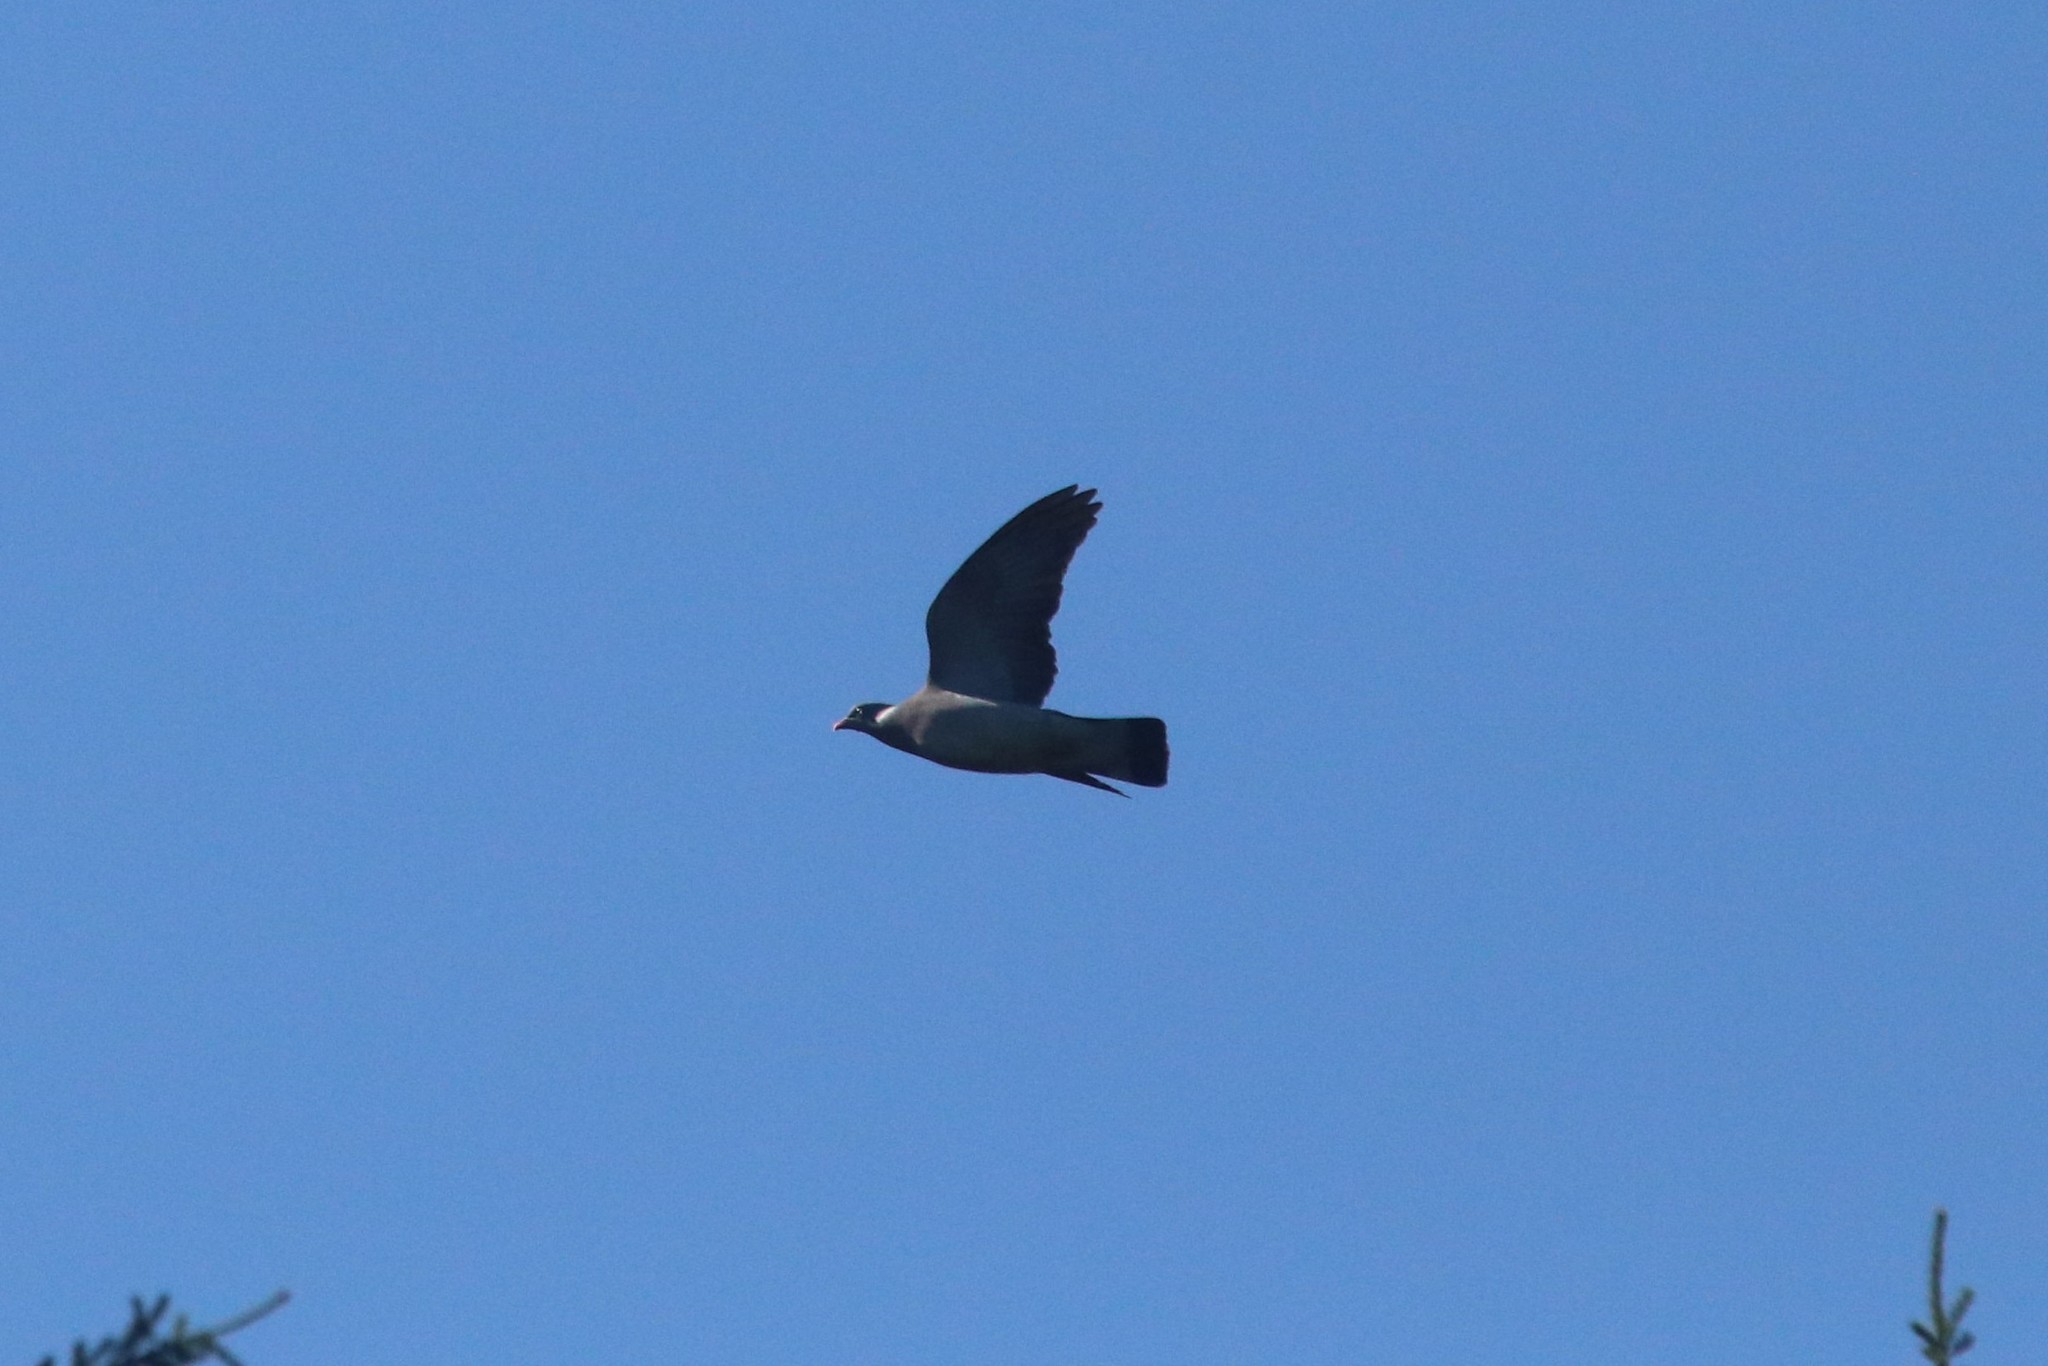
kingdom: Animalia
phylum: Chordata
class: Aves
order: Columbiformes
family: Columbidae
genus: Columba
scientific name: Columba palumbus
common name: Common wood pigeon
